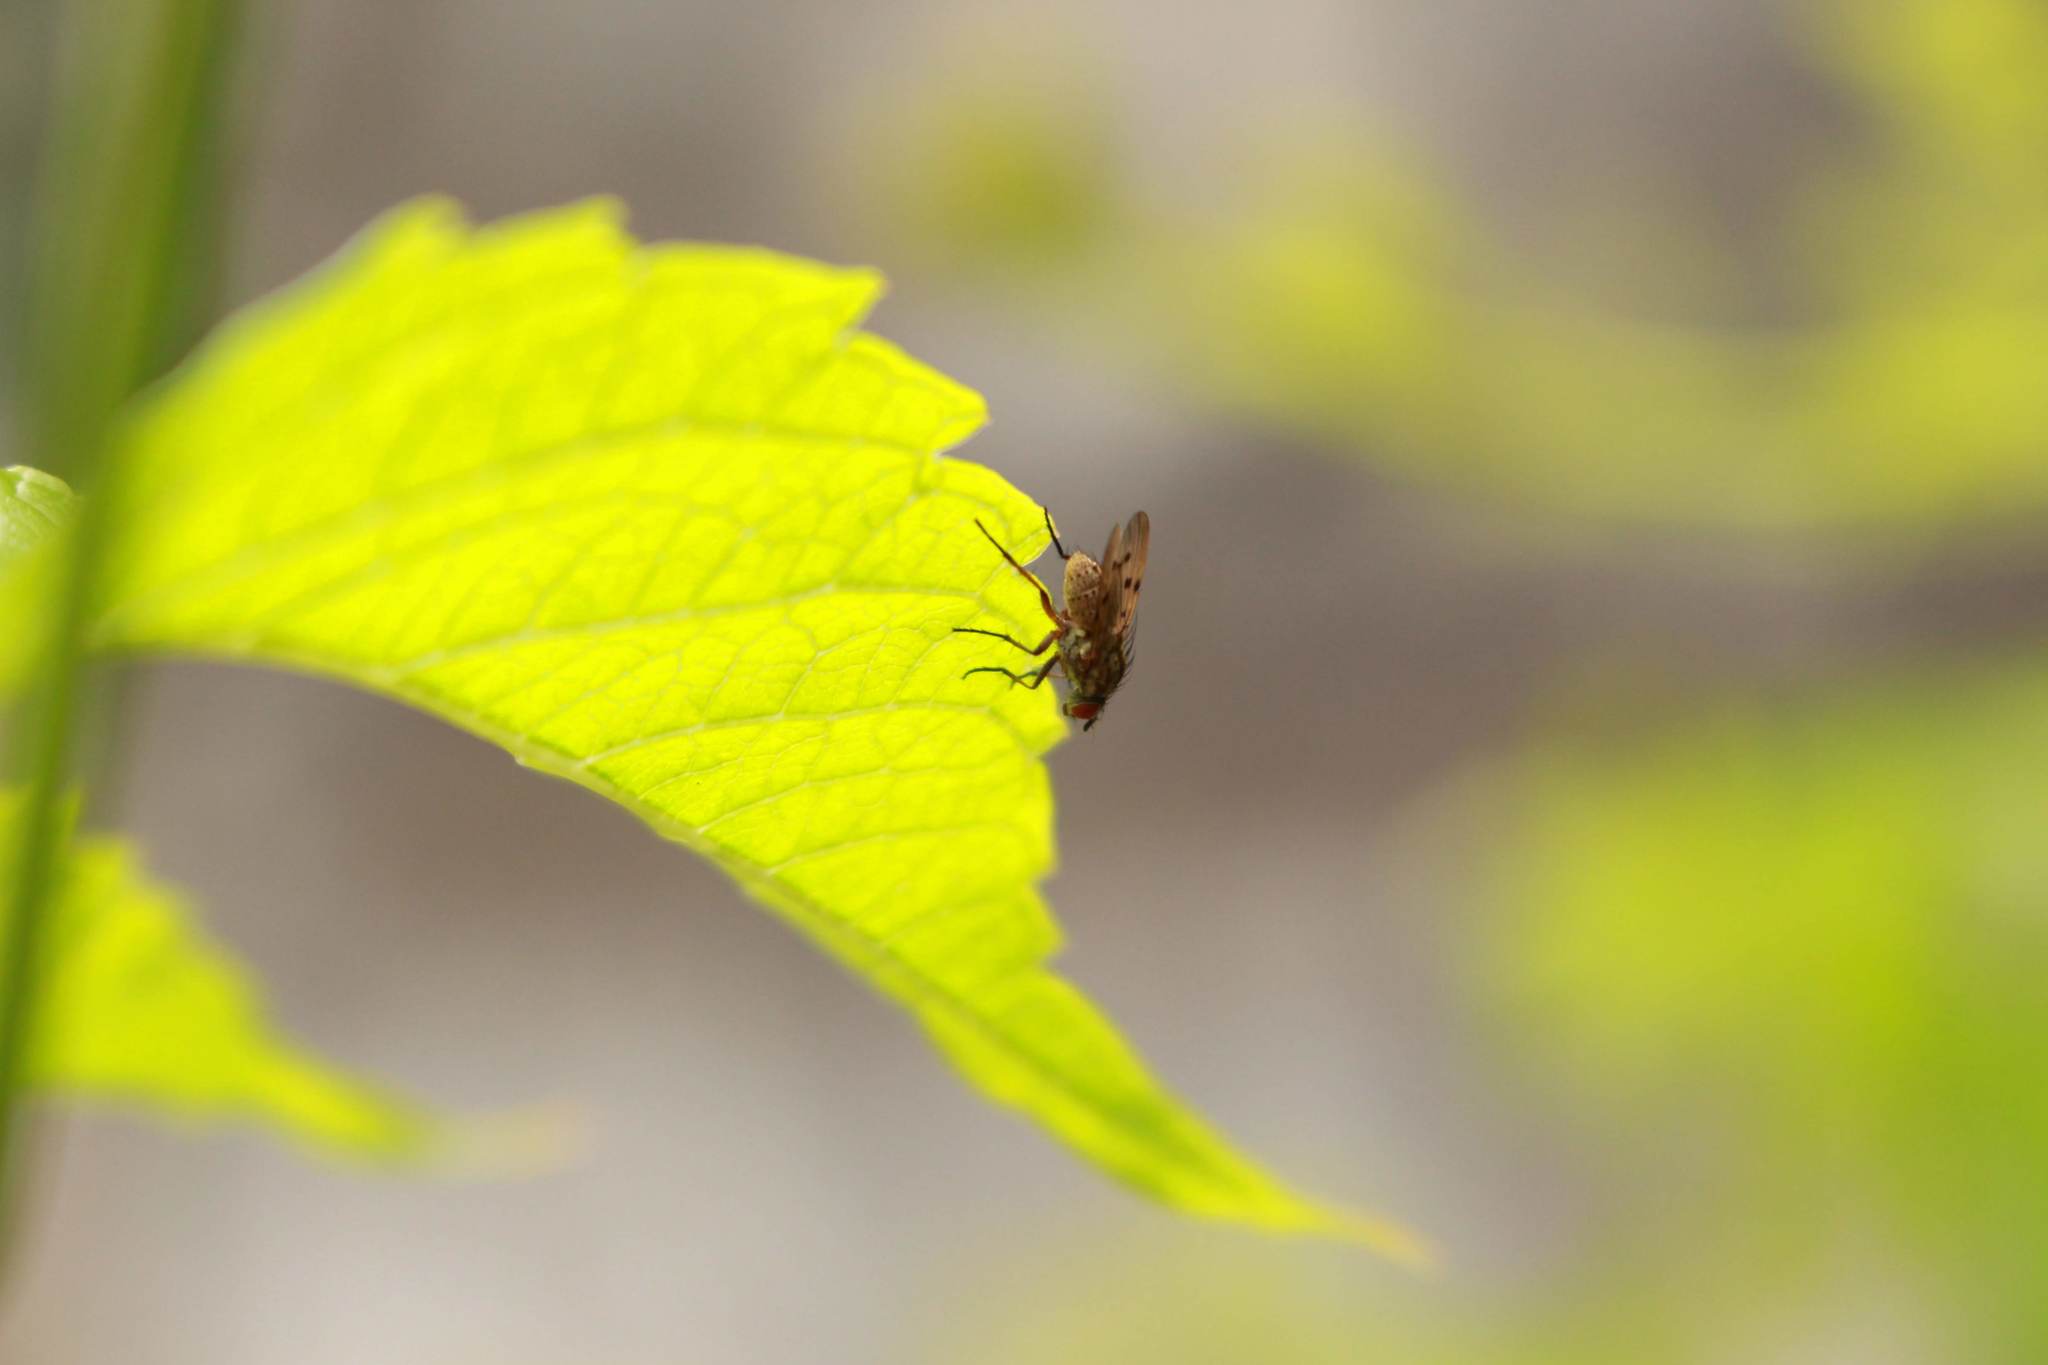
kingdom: Animalia
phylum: Arthropoda
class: Insecta
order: Diptera
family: Anthomyiidae
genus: Anthomyia
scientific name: Anthomyia punctipennis
